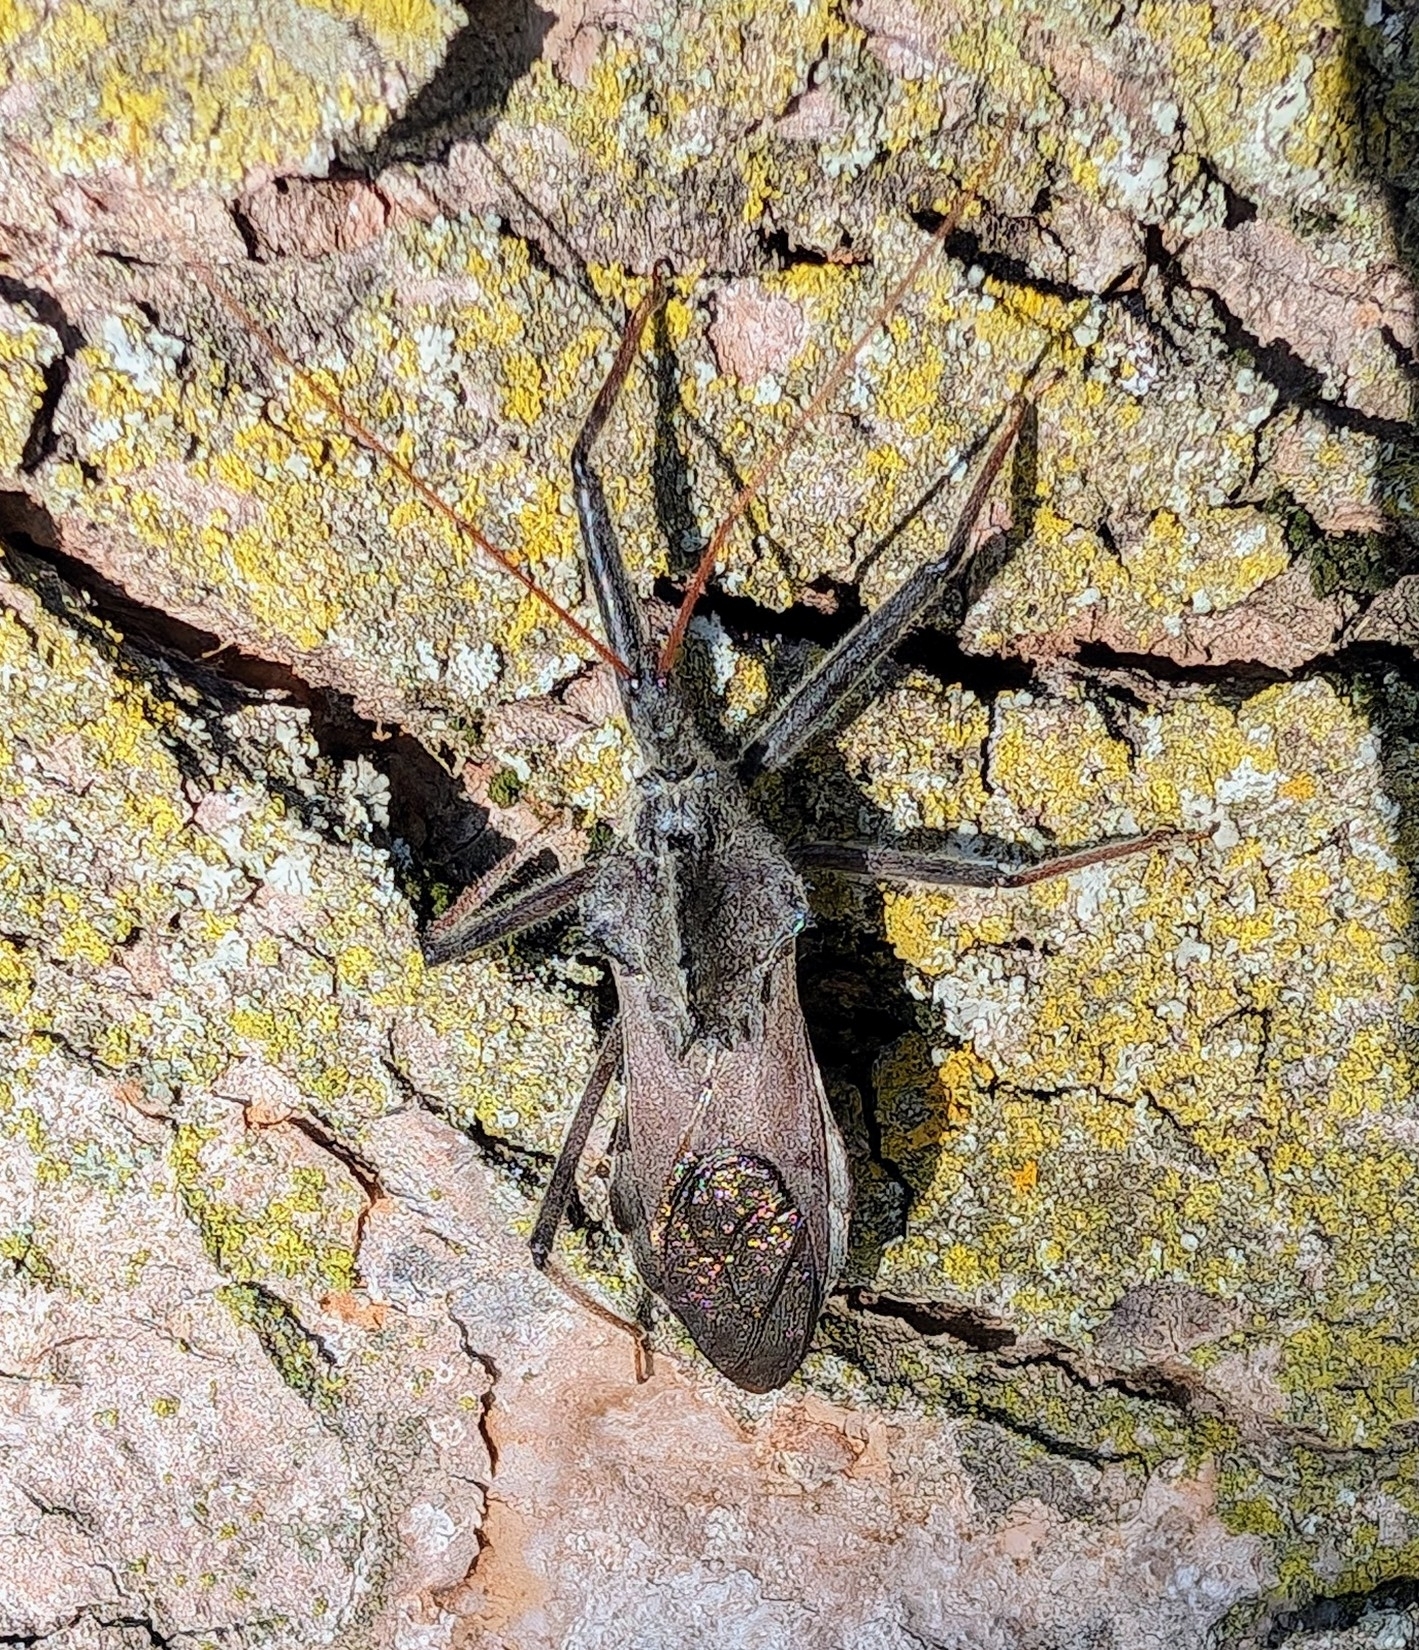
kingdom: Animalia
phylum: Arthropoda
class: Insecta
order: Hemiptera
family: Reduviidae
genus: Arilus
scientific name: Arilus cristatus
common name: North american wheel bug
